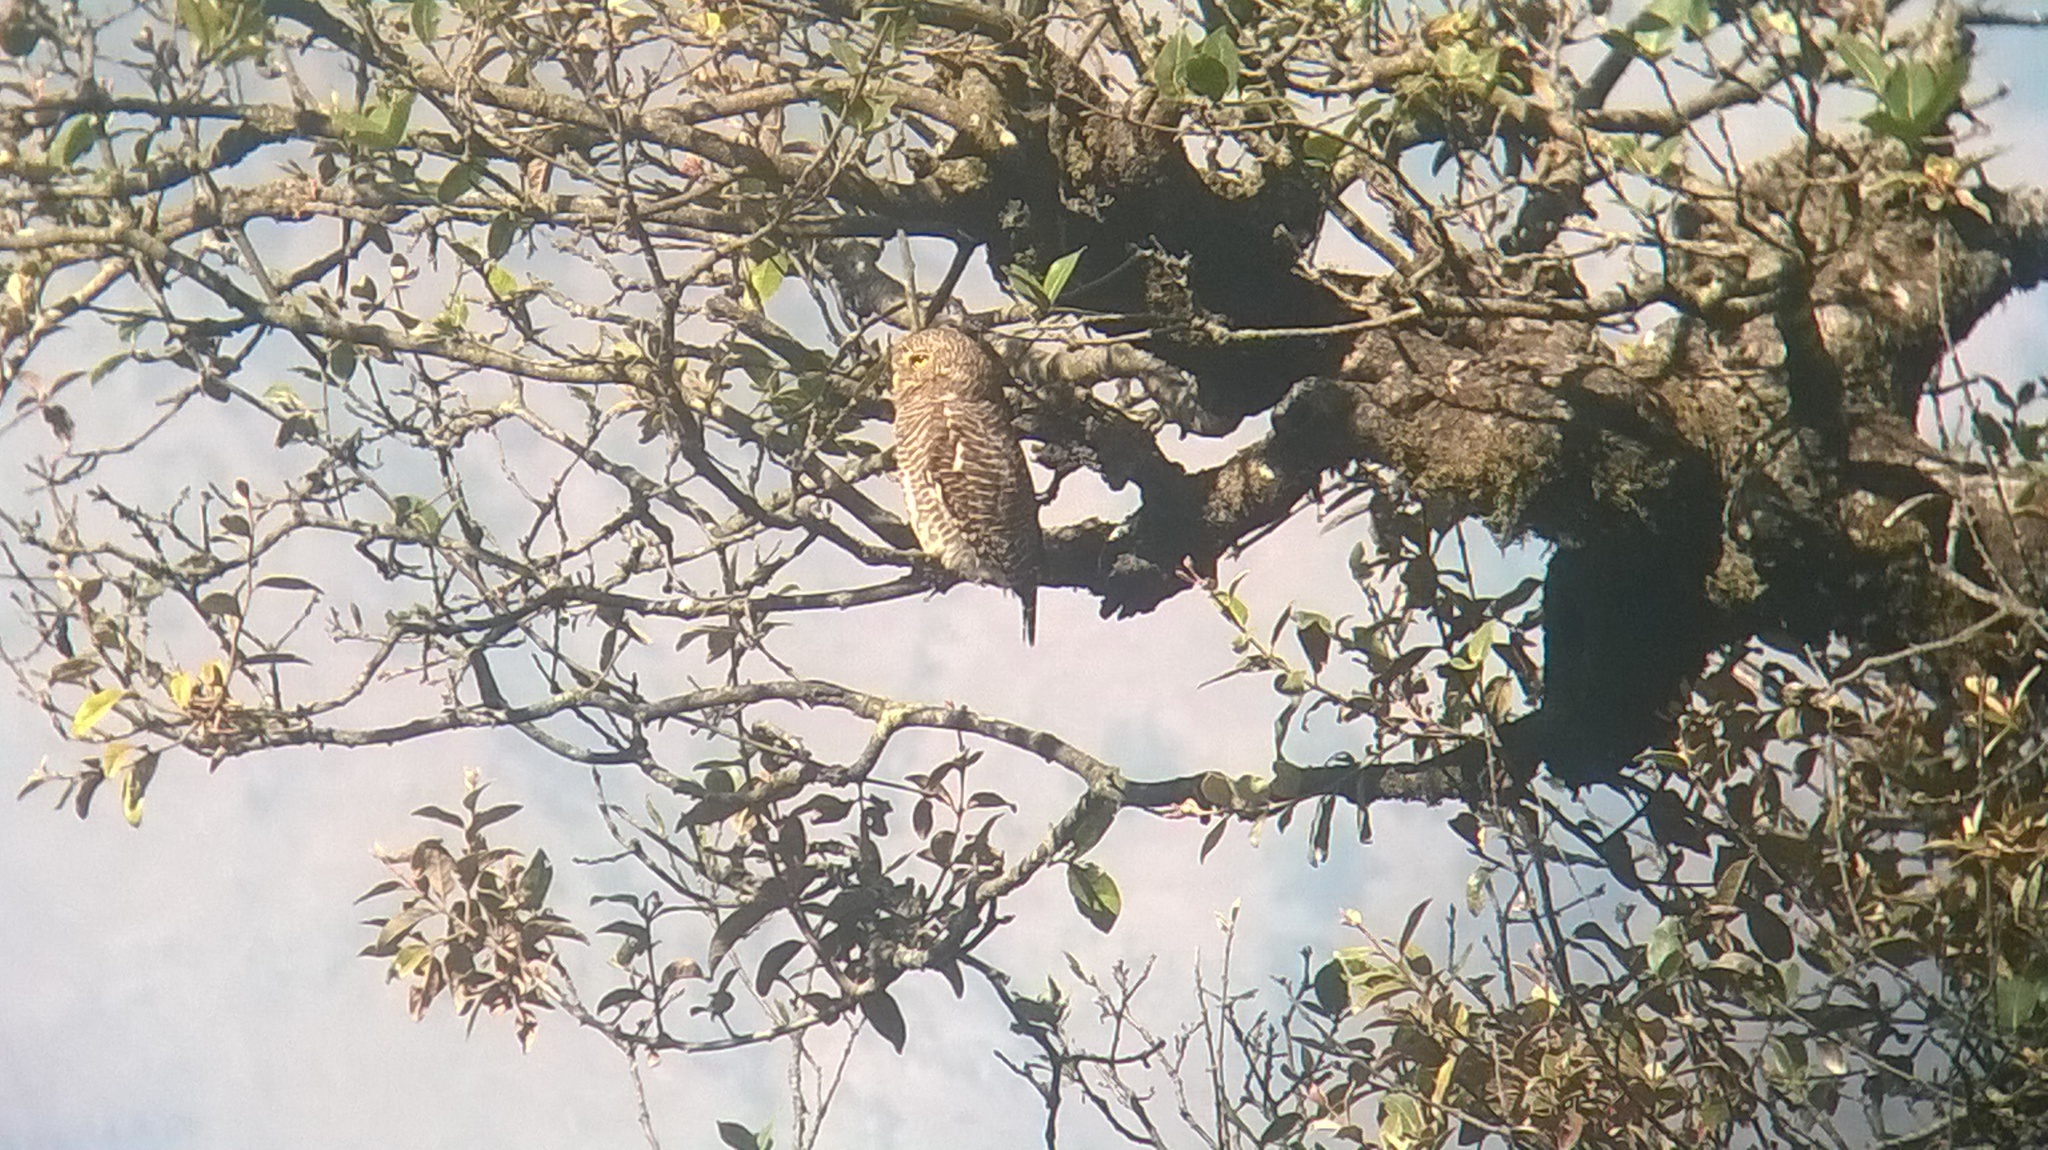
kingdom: Animalia
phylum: Chordata
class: Aves
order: Strigiformes
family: Strigidae
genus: Glaucidium
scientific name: Glaucidium cuculoides
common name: Asian barred owlet
